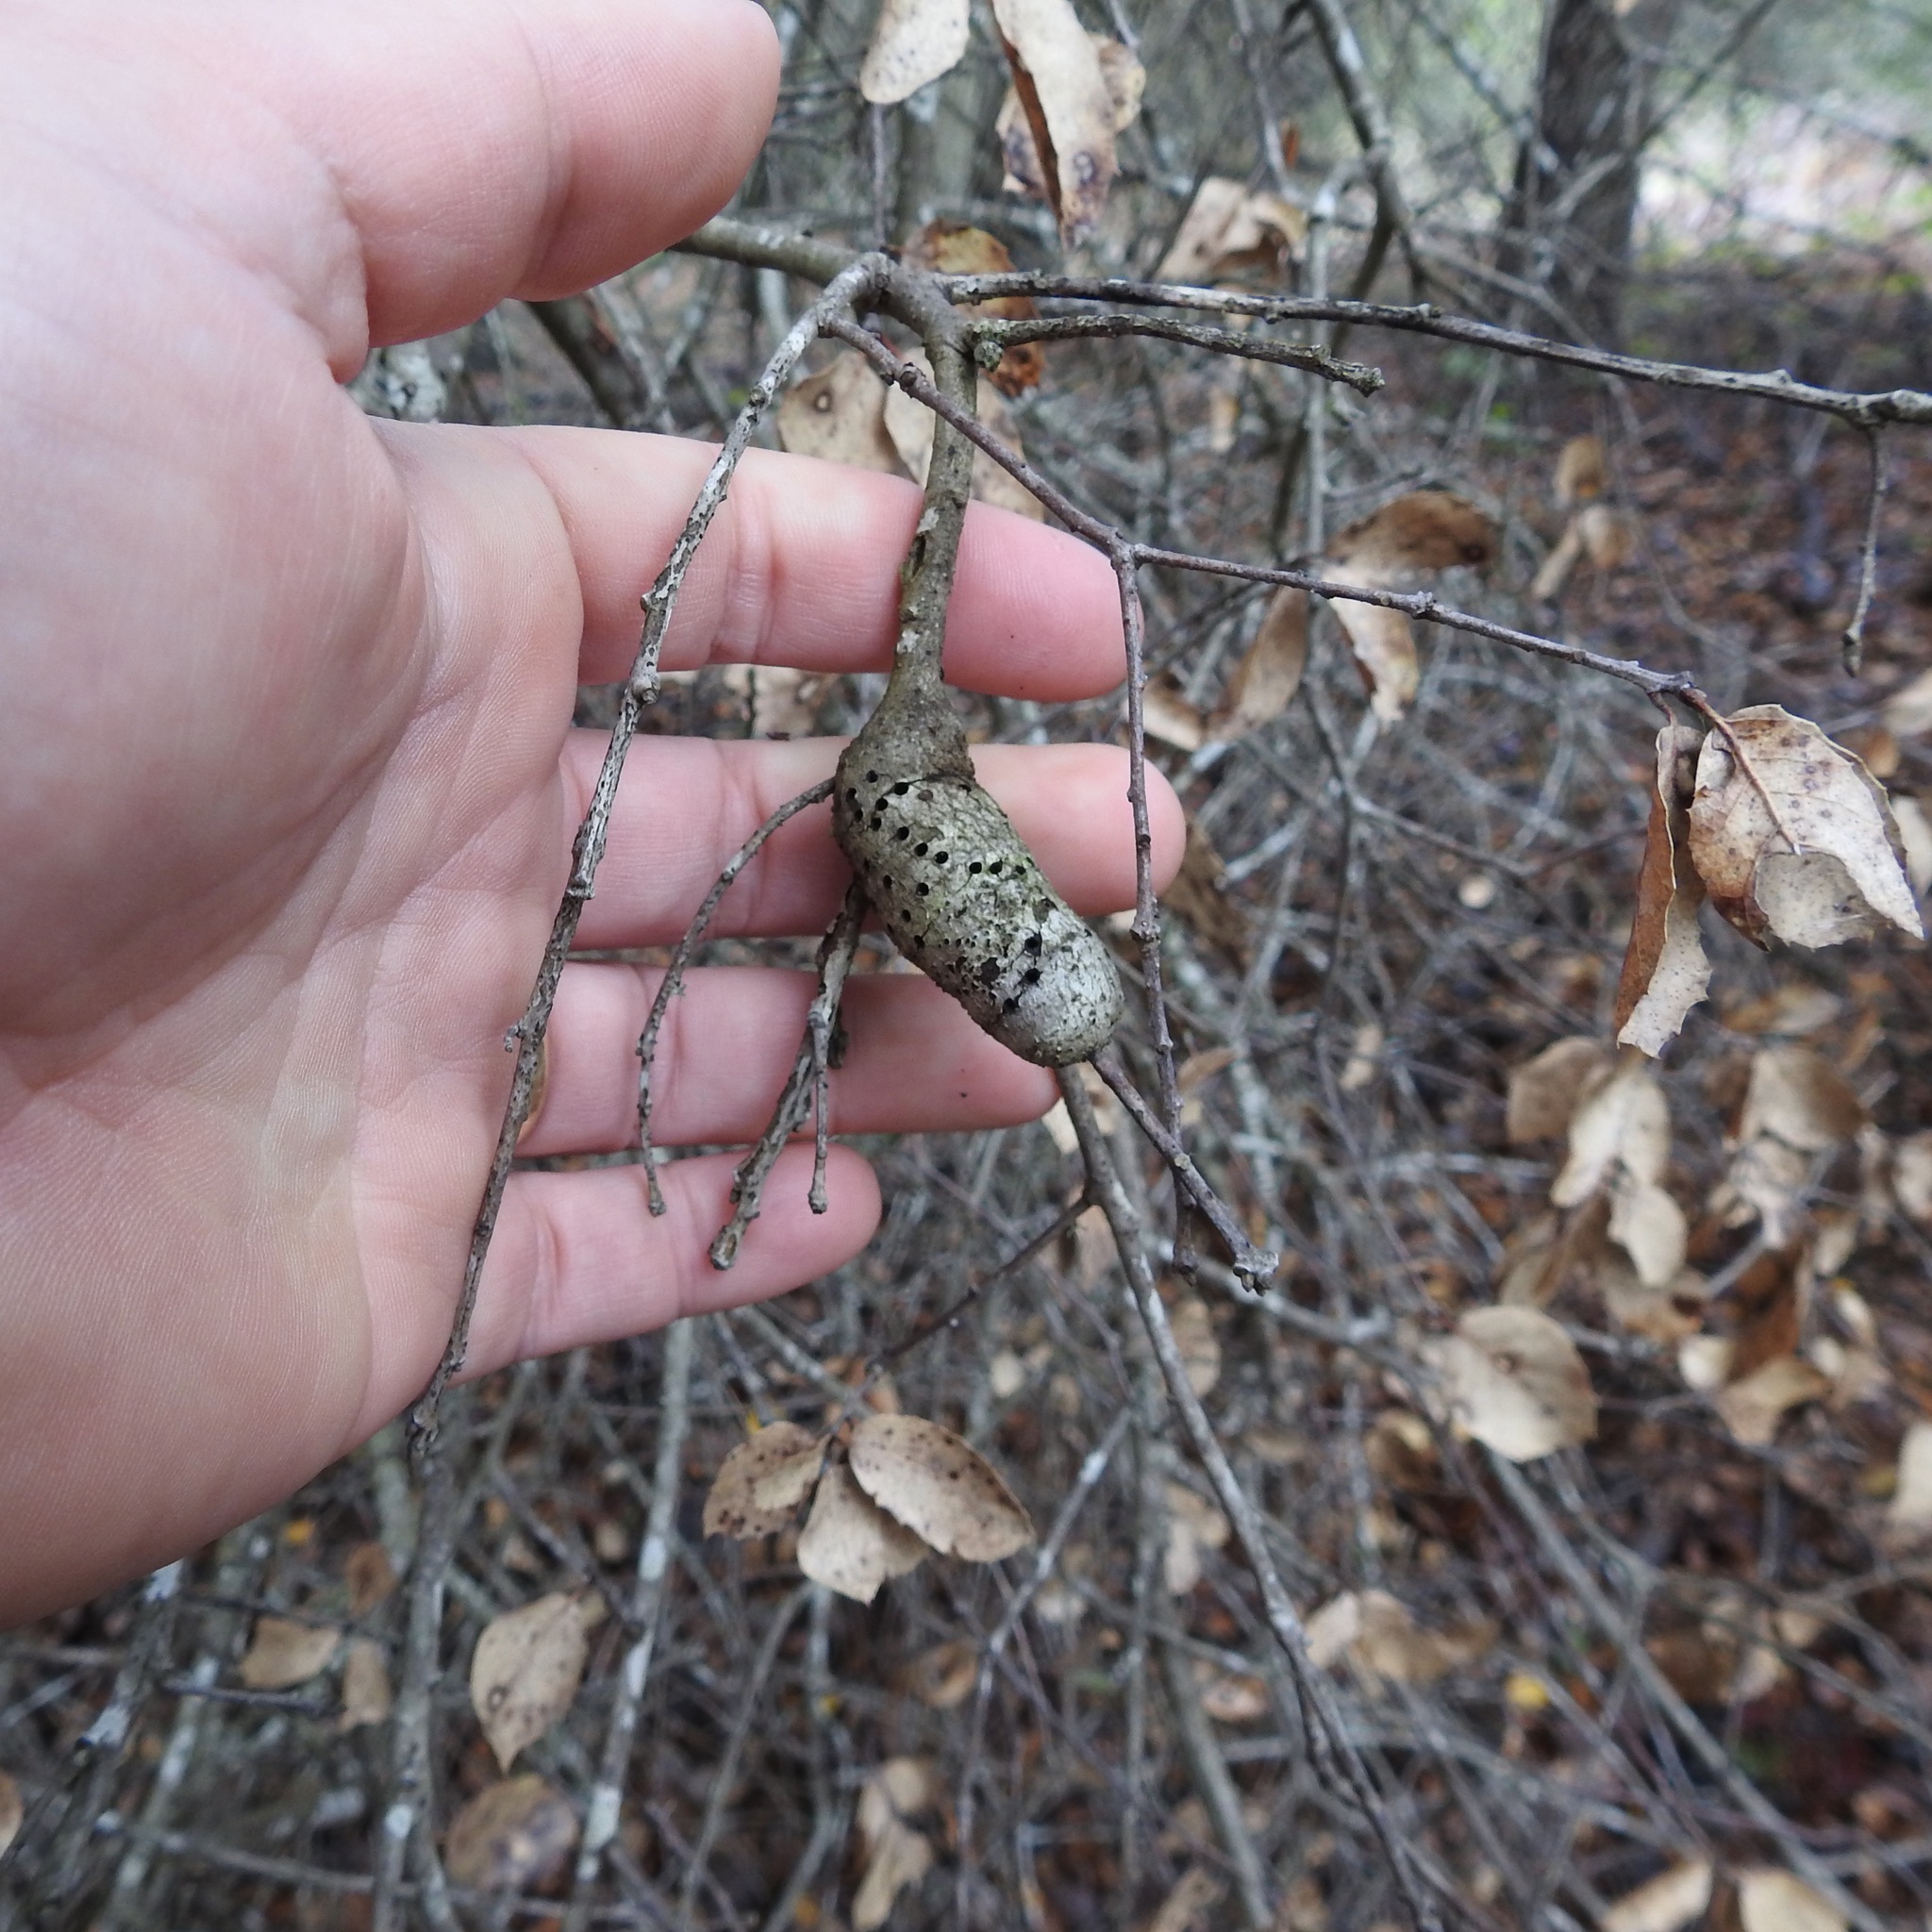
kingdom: Animalia
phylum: Arthropoda
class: Insecta
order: Hymenoptera
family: Cynipidae
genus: Callirhytis
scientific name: Callirhytis
